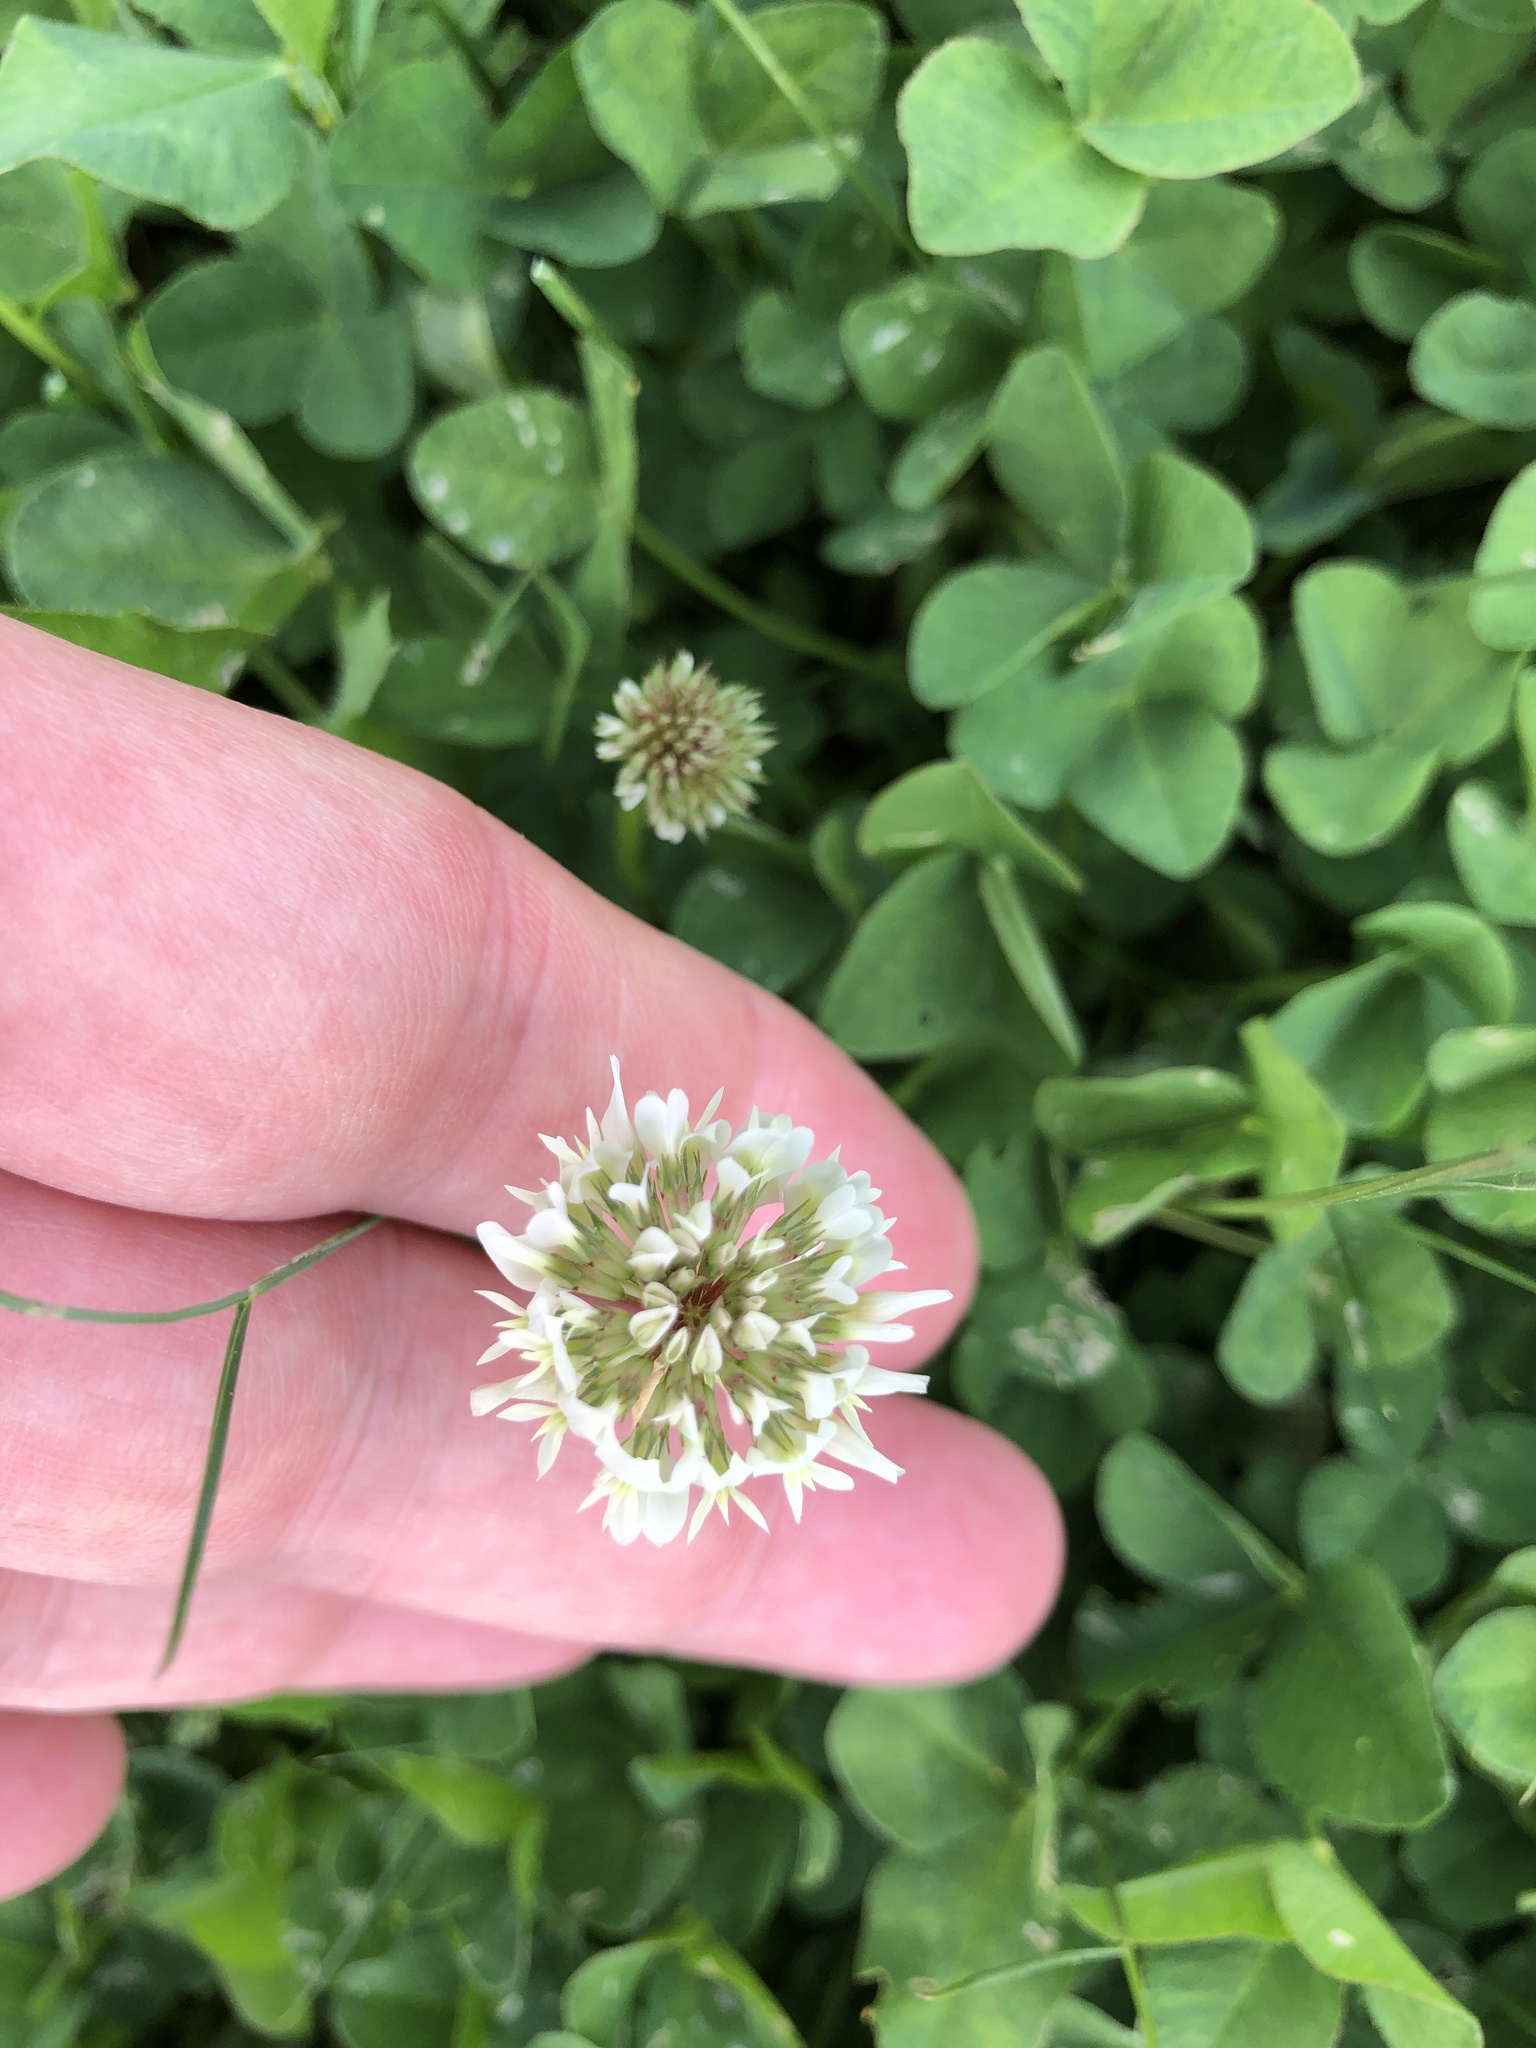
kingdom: Plantae
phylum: Tracheophyta
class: Magnoliopsida
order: Fabales
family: Fabaceae
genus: Trifolium
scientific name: Trifolium repens
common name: White clover
